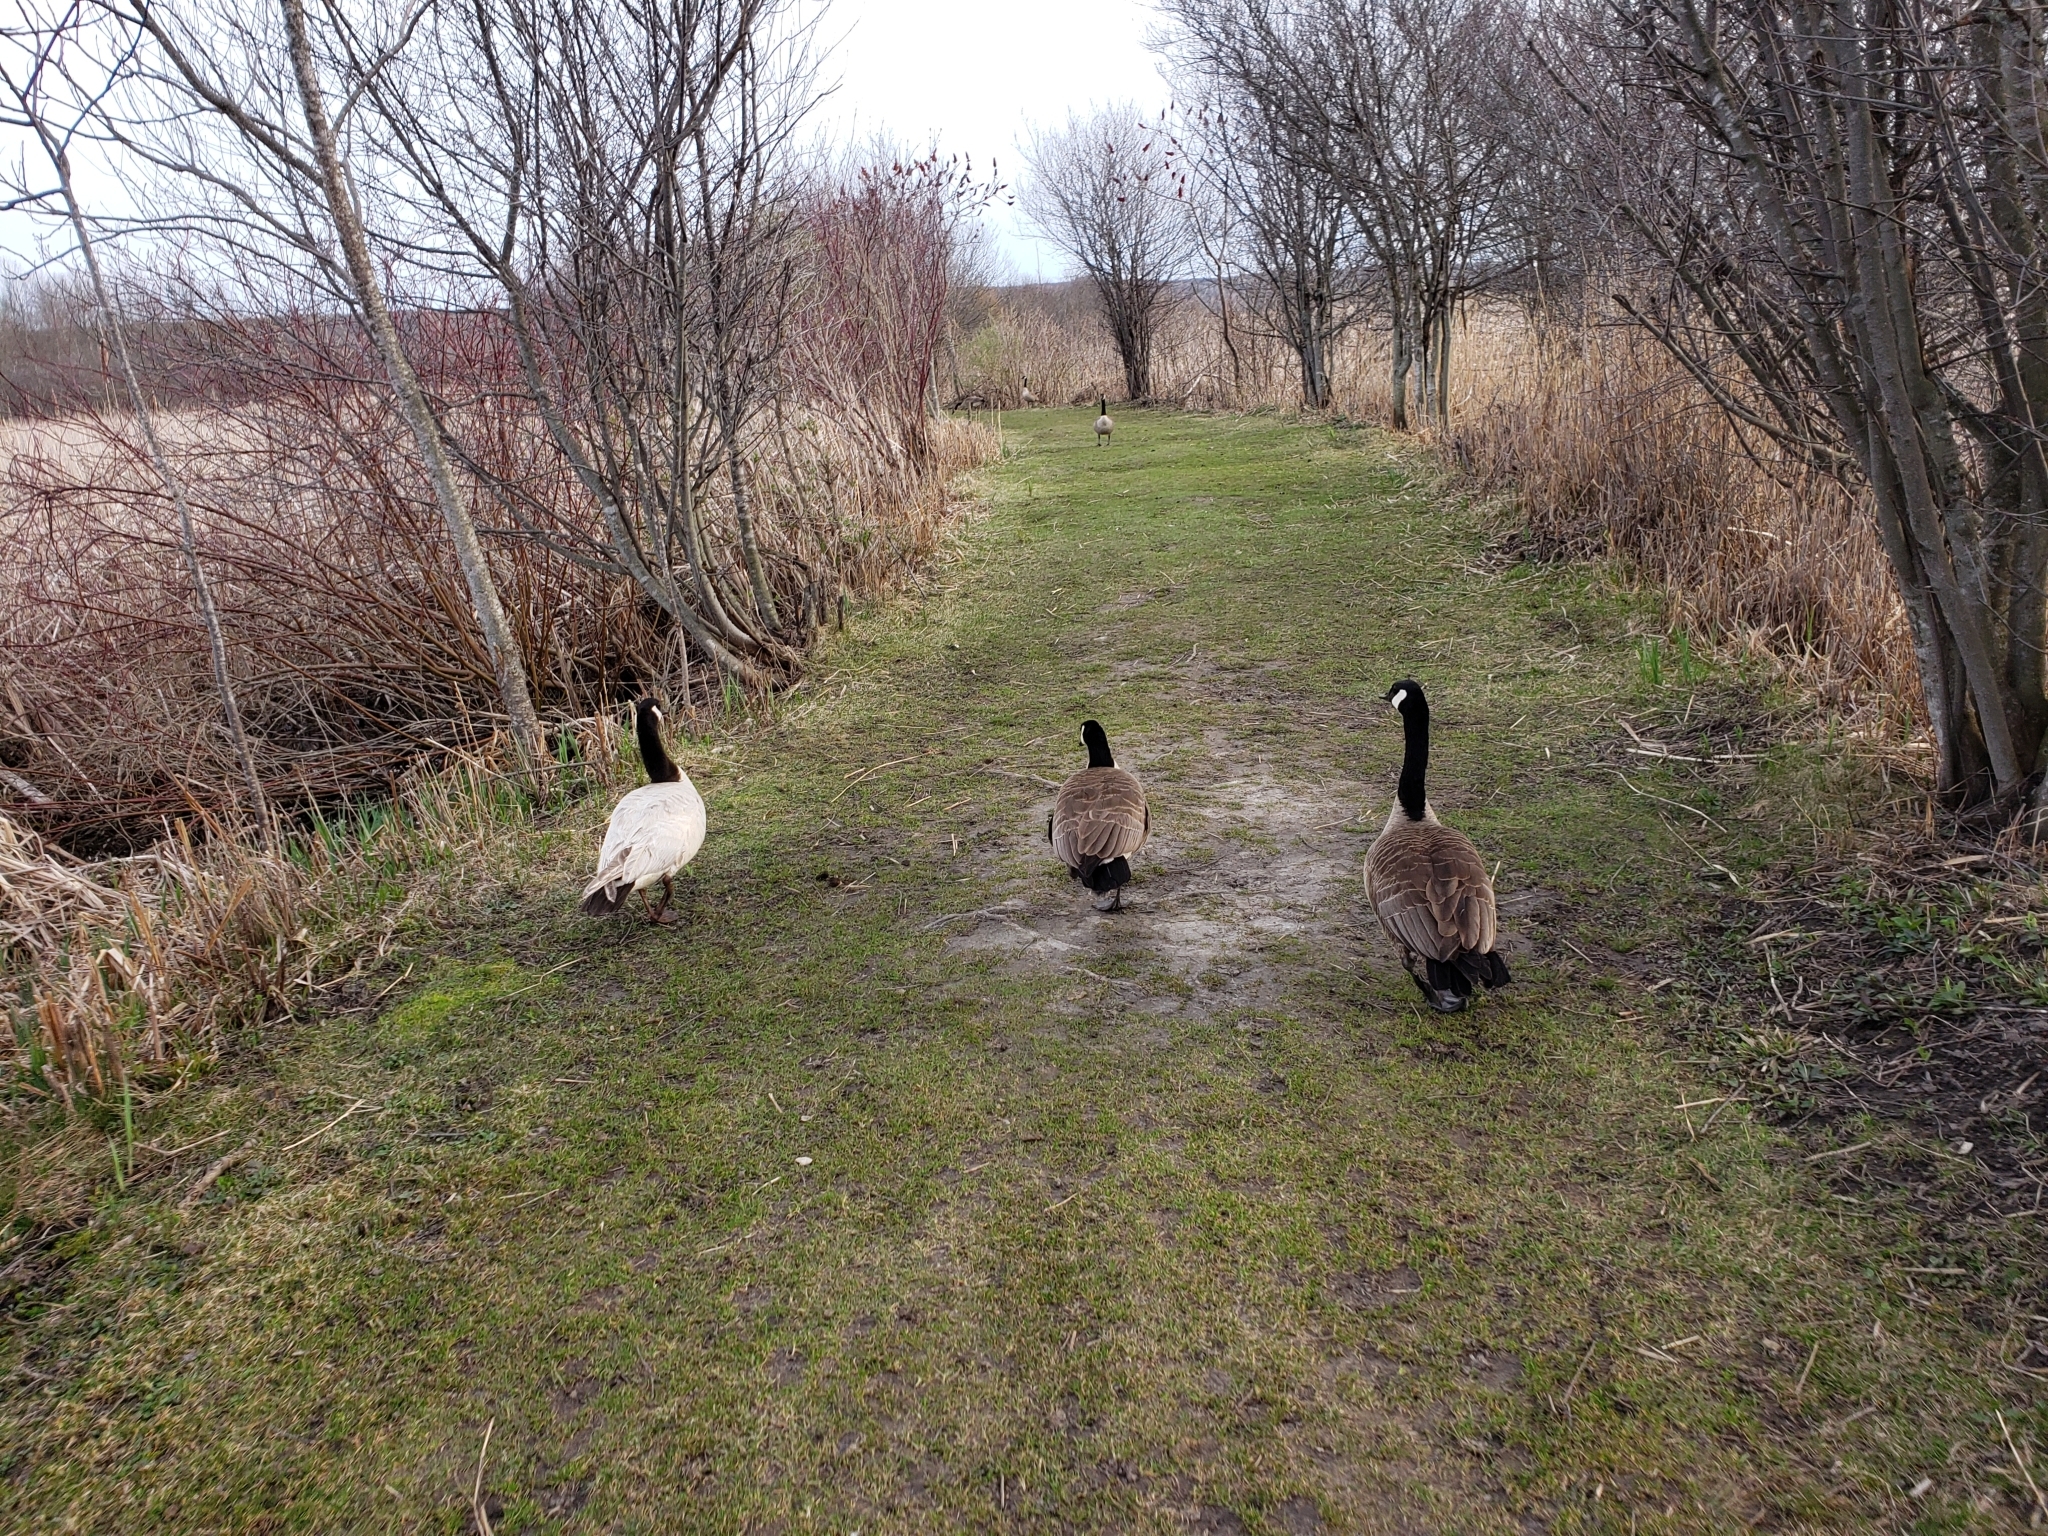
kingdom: Animalia
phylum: Chordata
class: Aves
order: Anseriformes
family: Anatidae
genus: Branta
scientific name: Branta canadensis
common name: Canada goose
